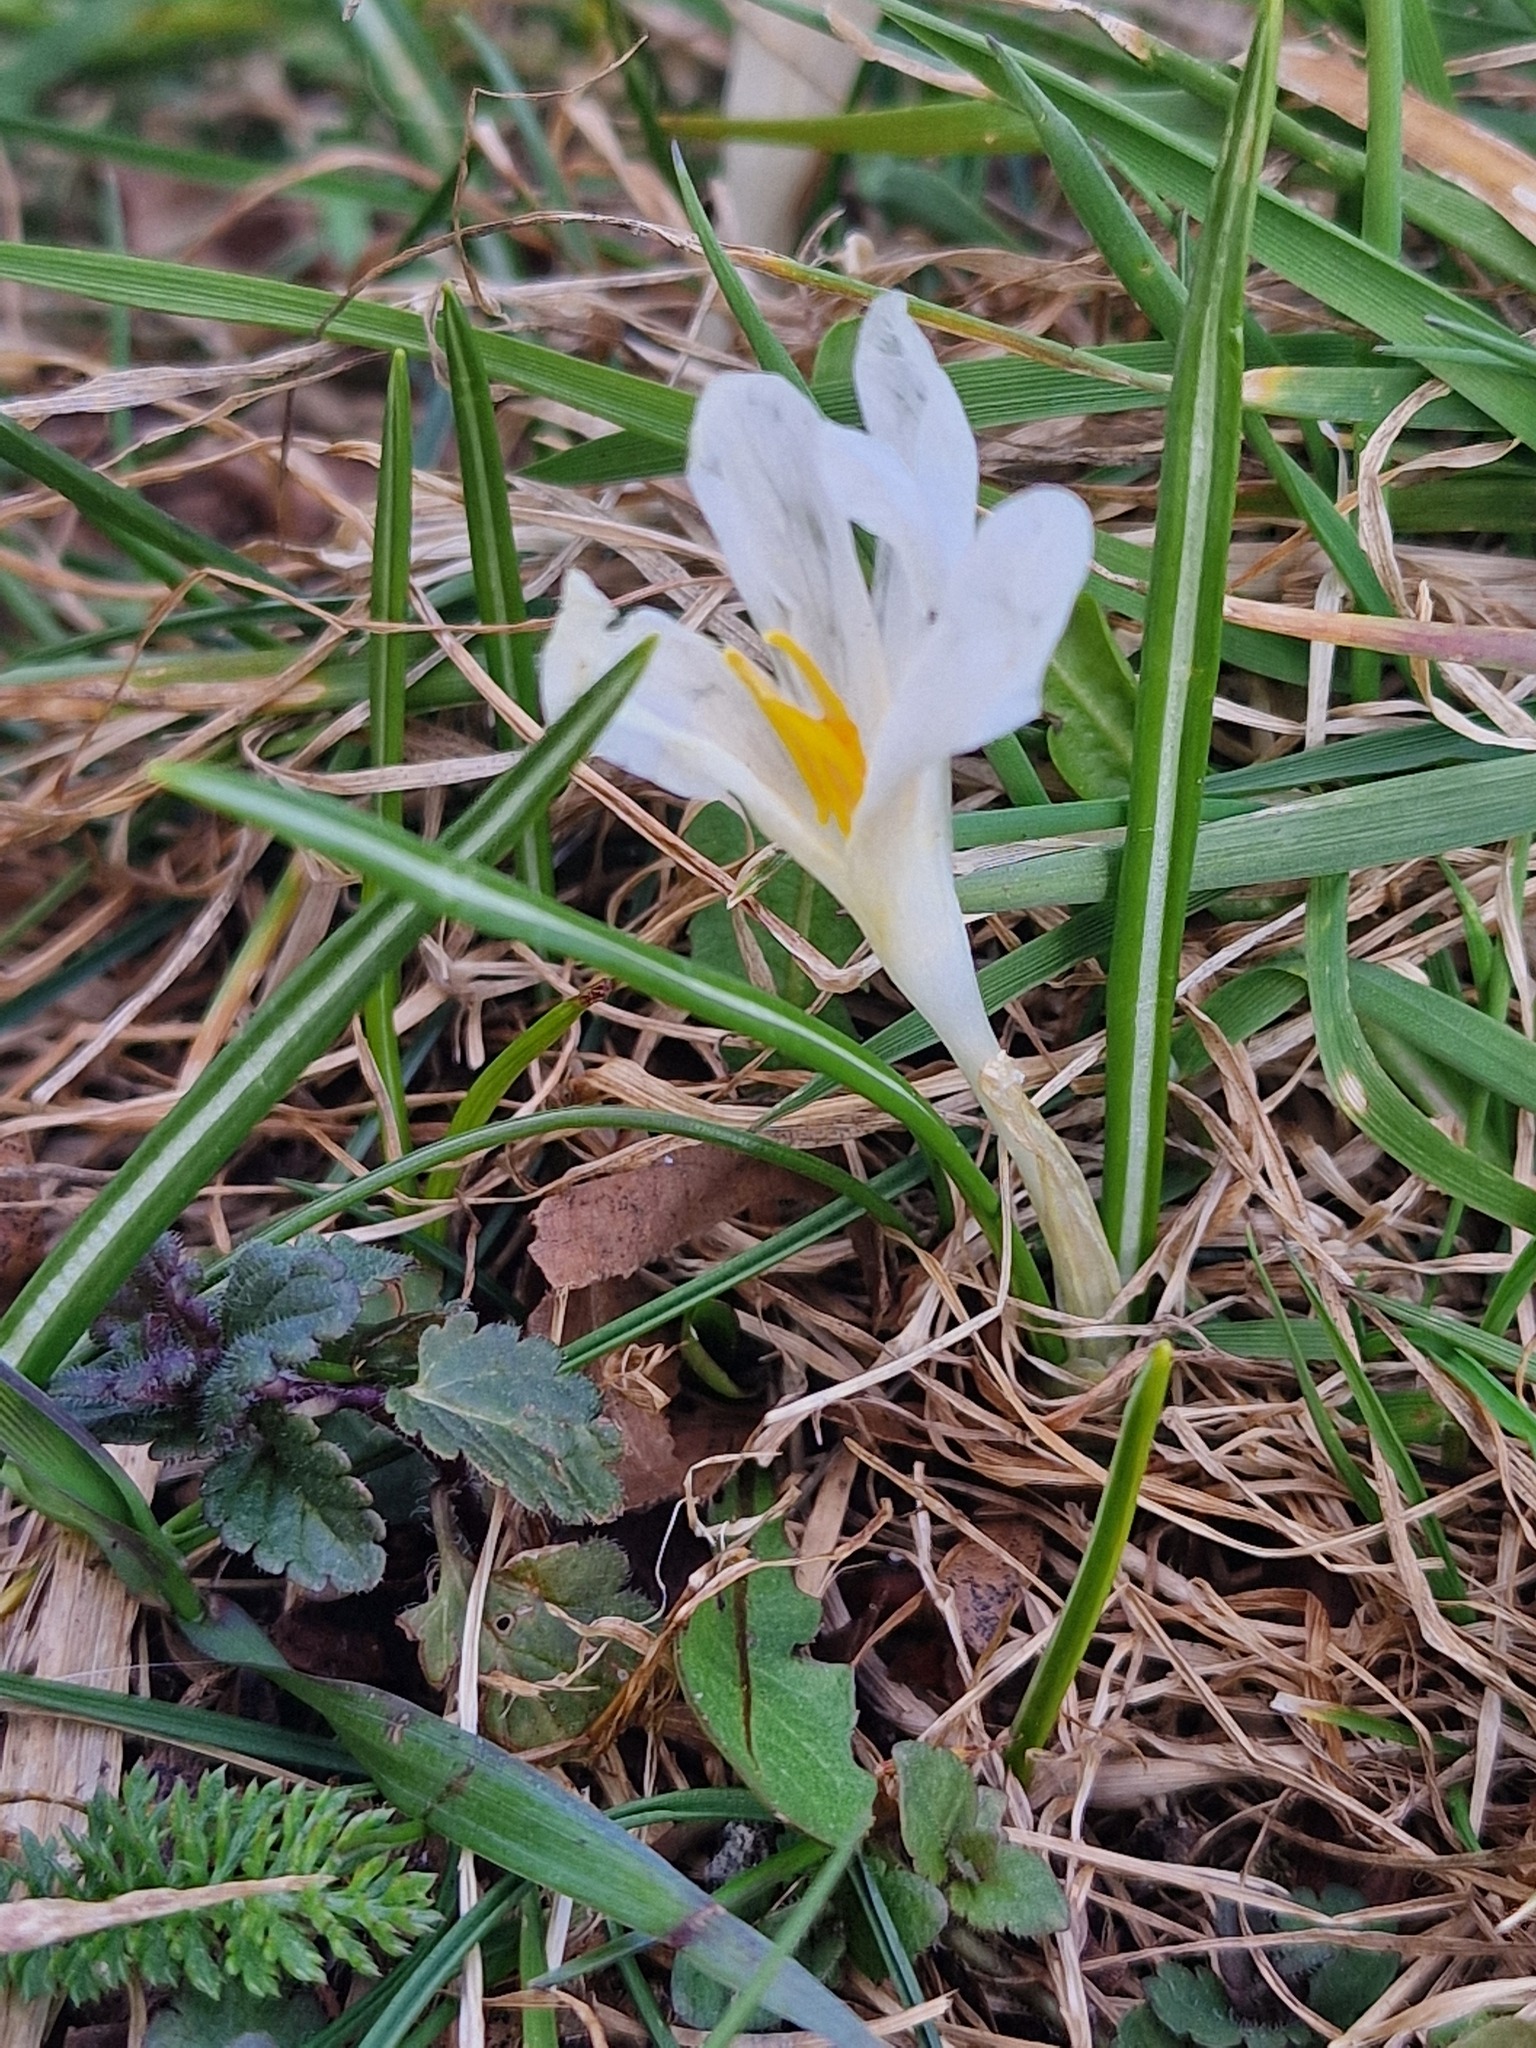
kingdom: Plantae
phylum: Tracheophyta
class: Liliopsida
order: Asparagales
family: Iridaceae
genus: Crocus
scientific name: Crocus vernus
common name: Spring crocus
